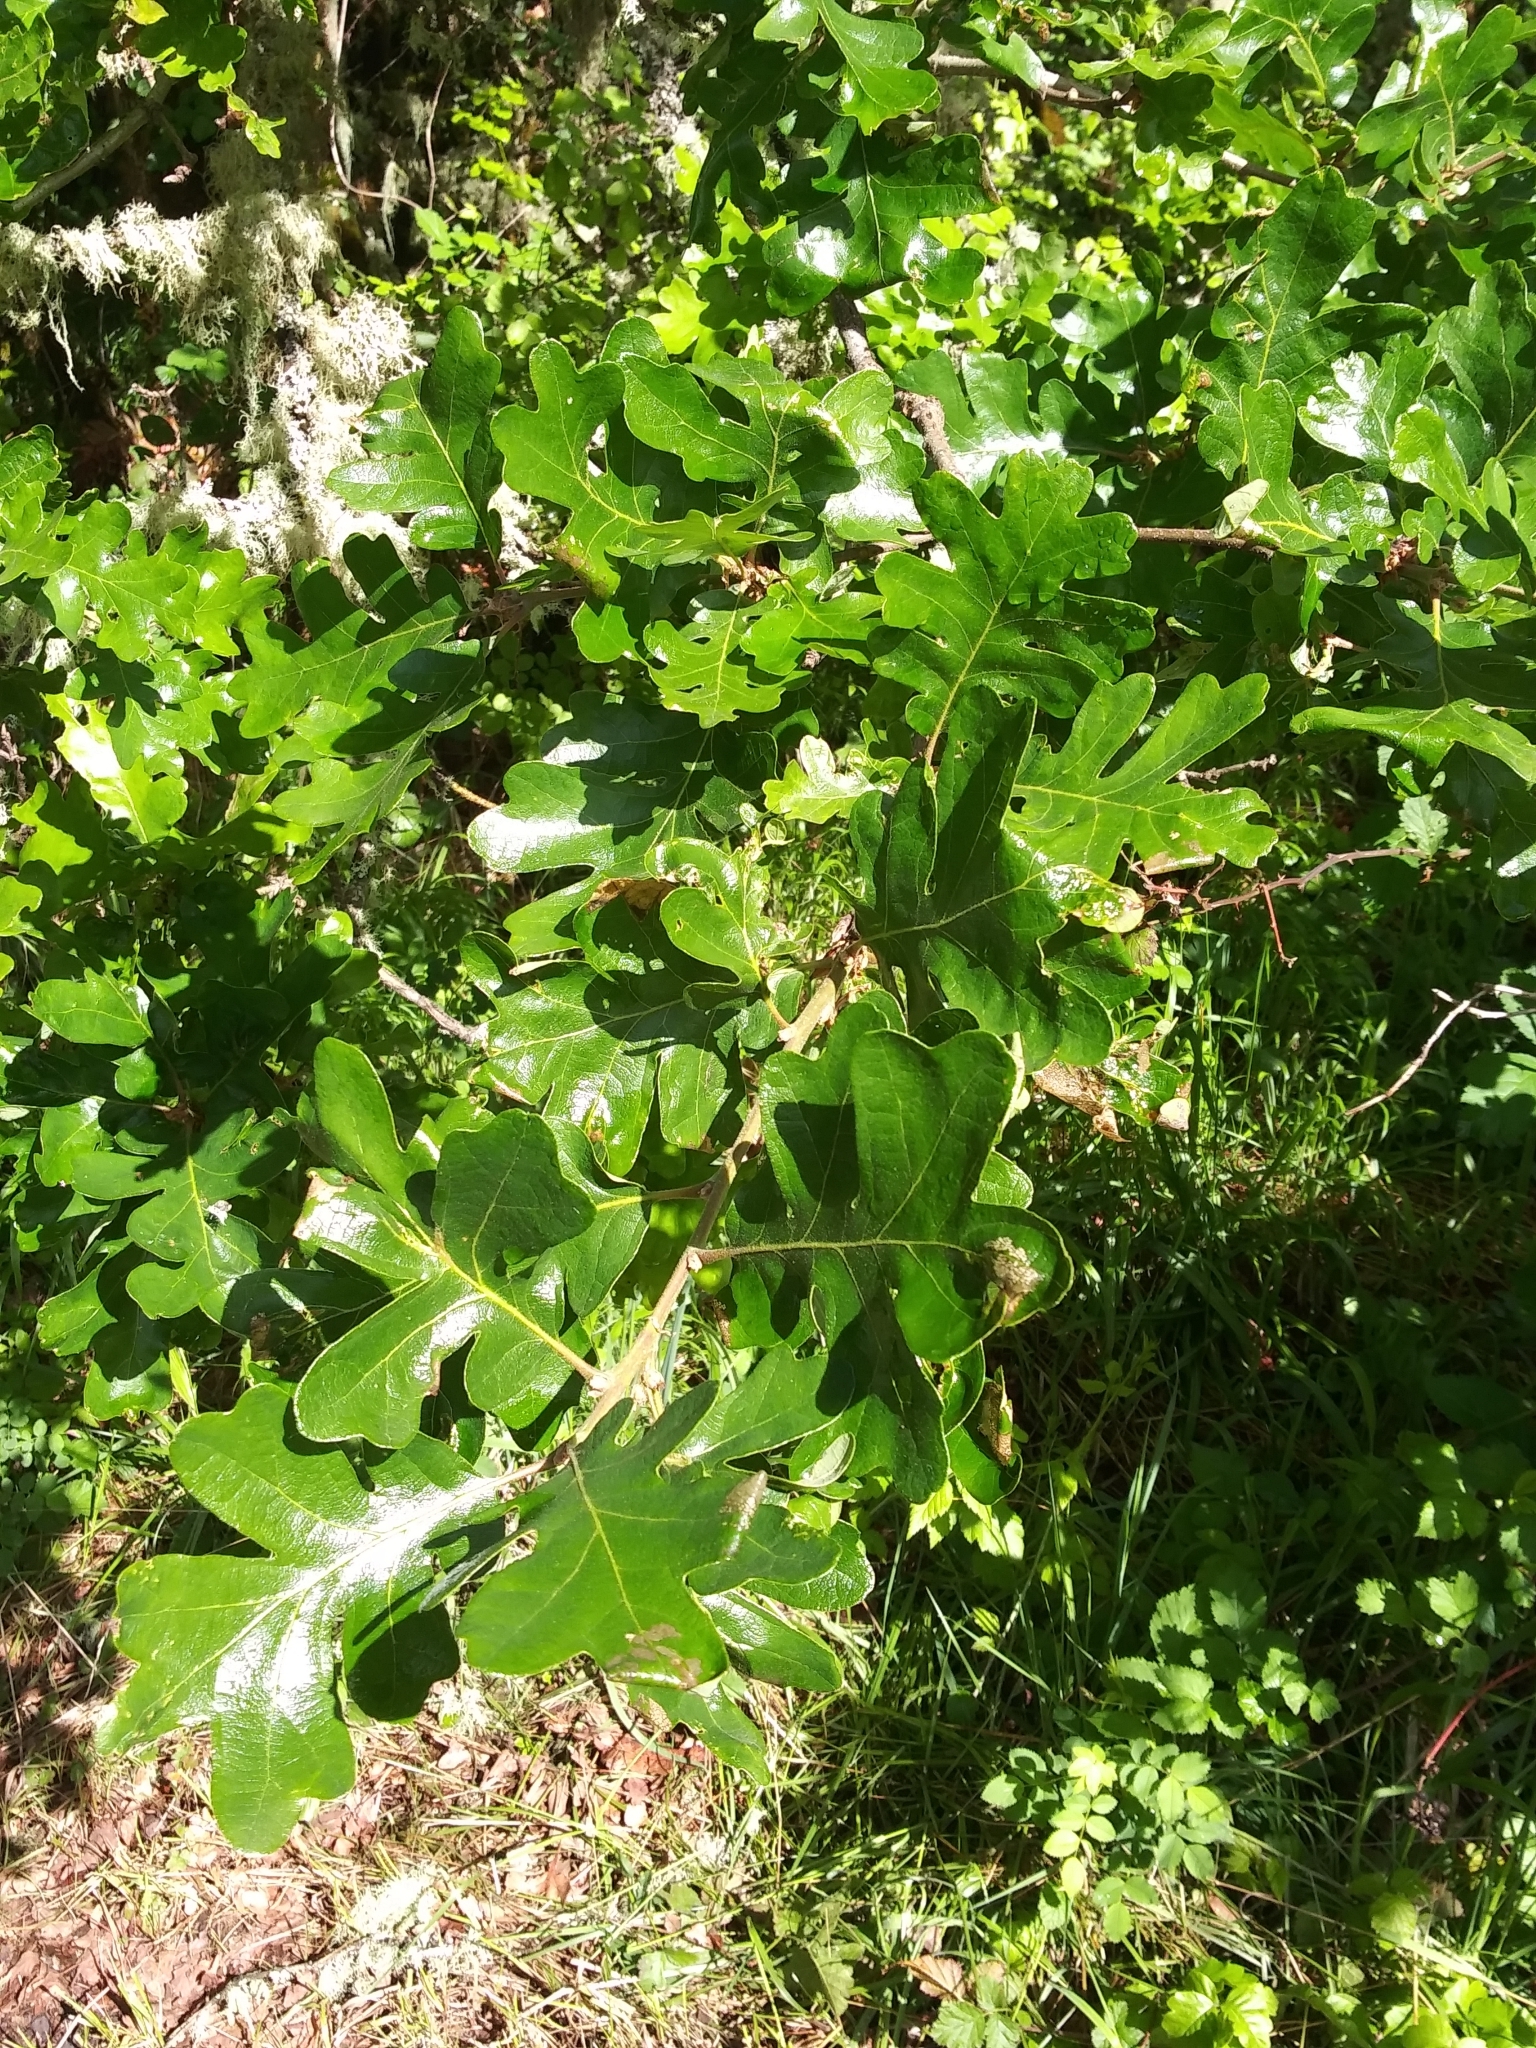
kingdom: Plantae
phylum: Tracheophyta
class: Magnoliopsida
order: Fagales
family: Fagaceae
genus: Quercus
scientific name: Quercus garryana
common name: Garry oak
